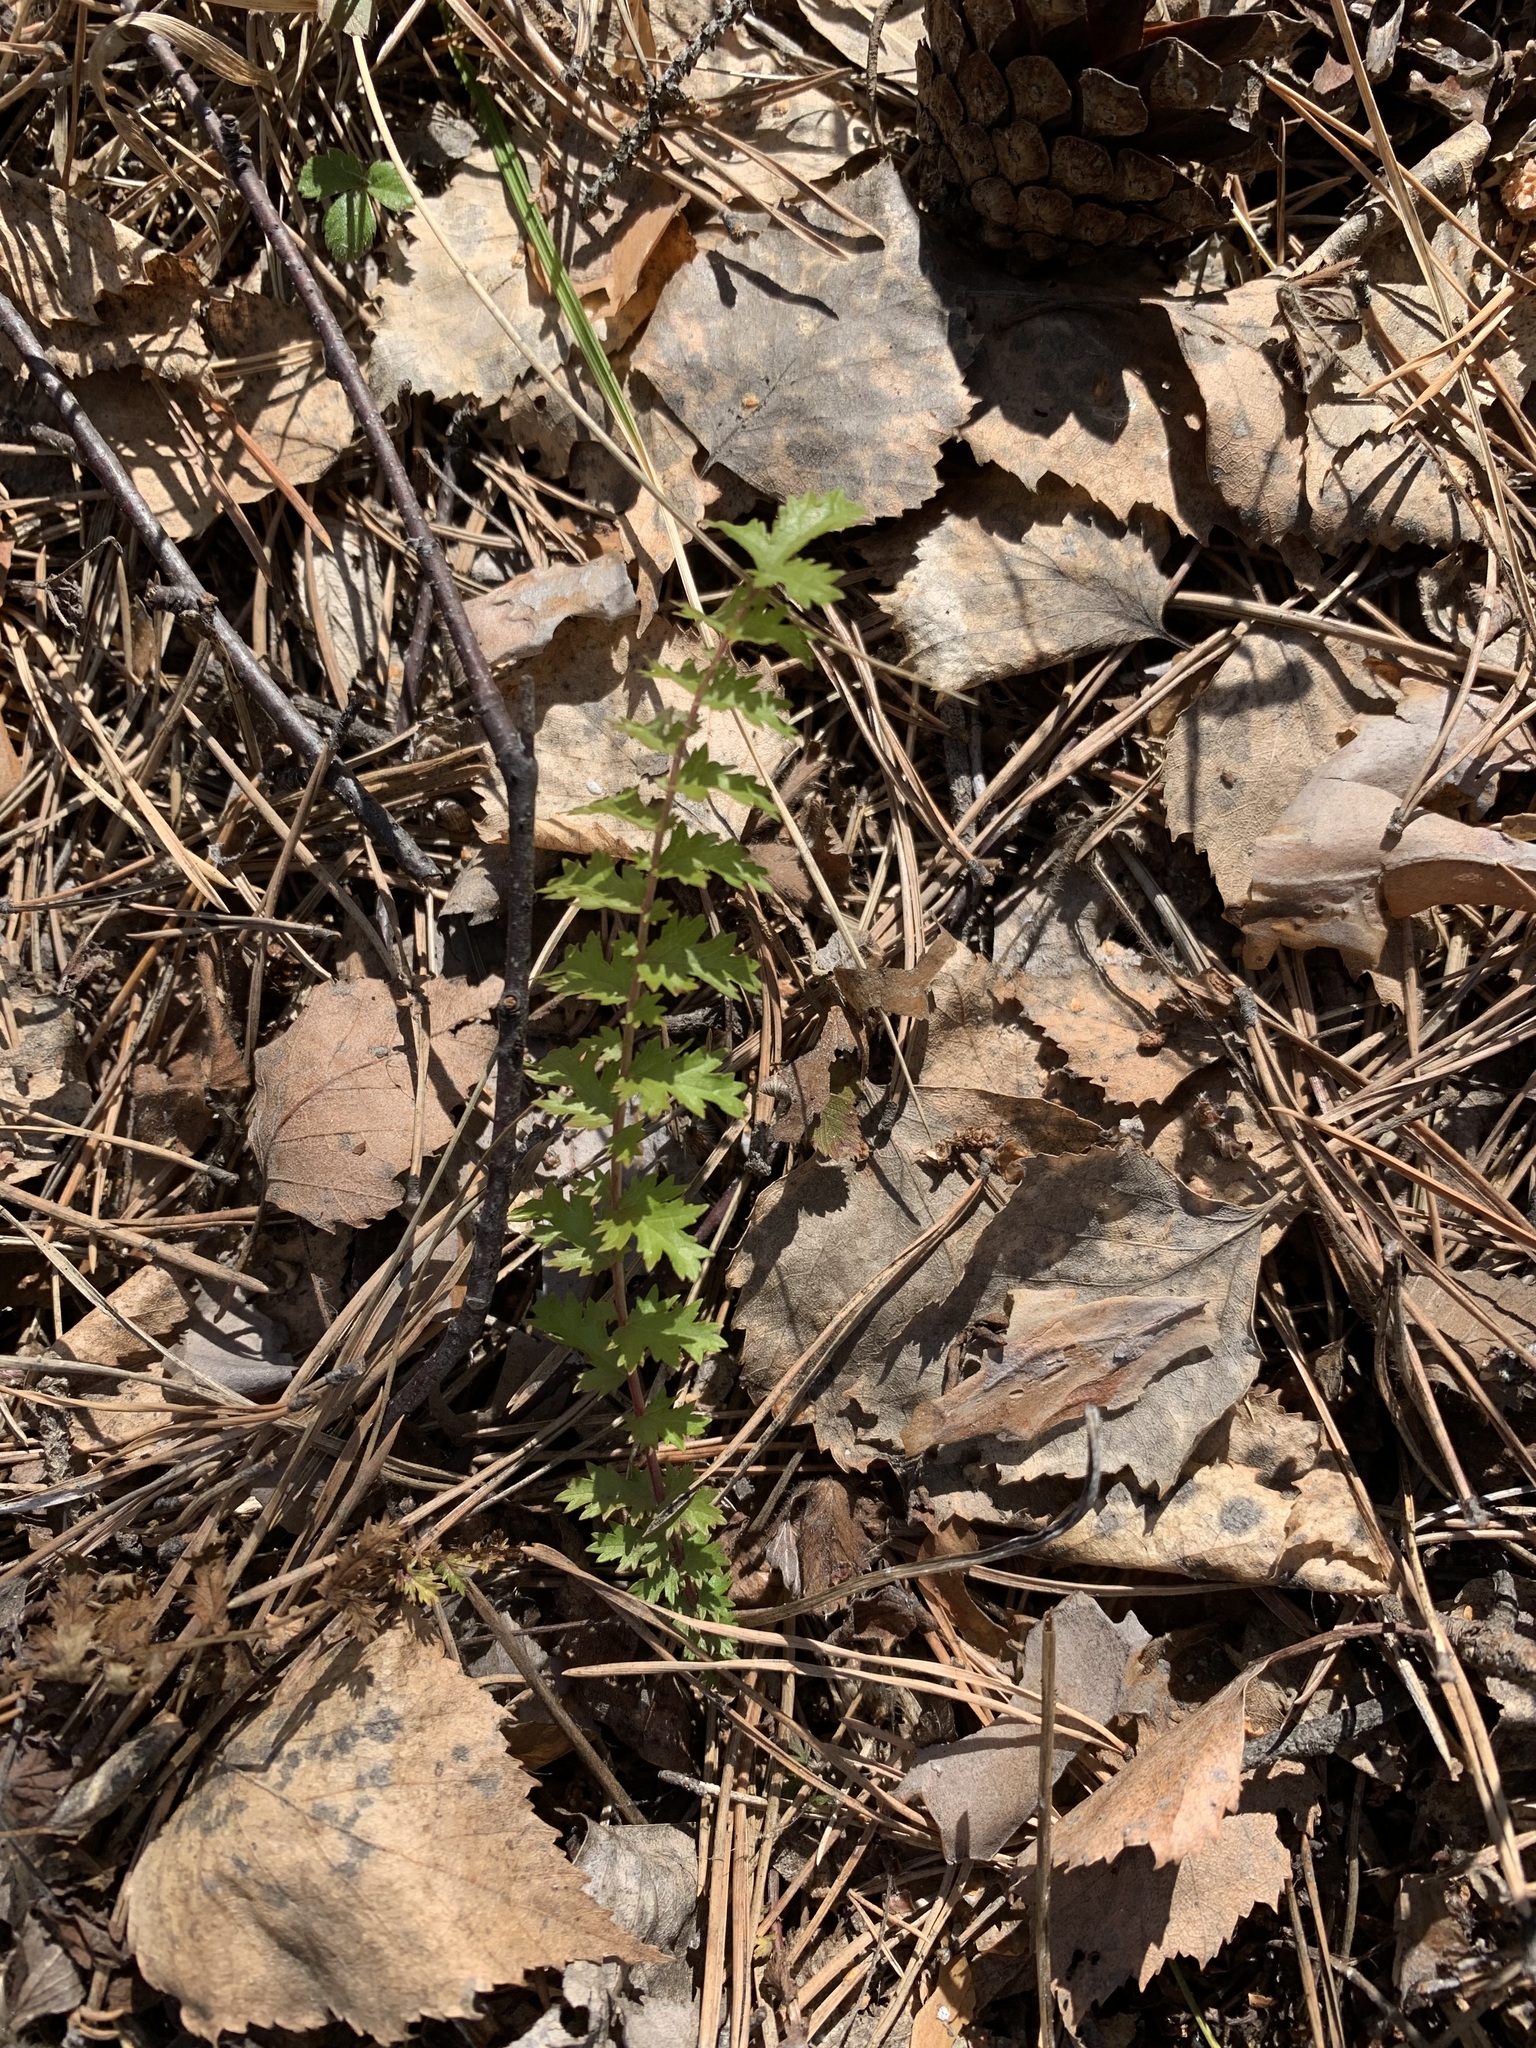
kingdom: Plantae
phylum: Tracheophyta
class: Magnoliopsida
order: Rosales
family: Rosaceae
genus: Filipendula
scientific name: Filipendula vulgaris
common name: Dropwort
